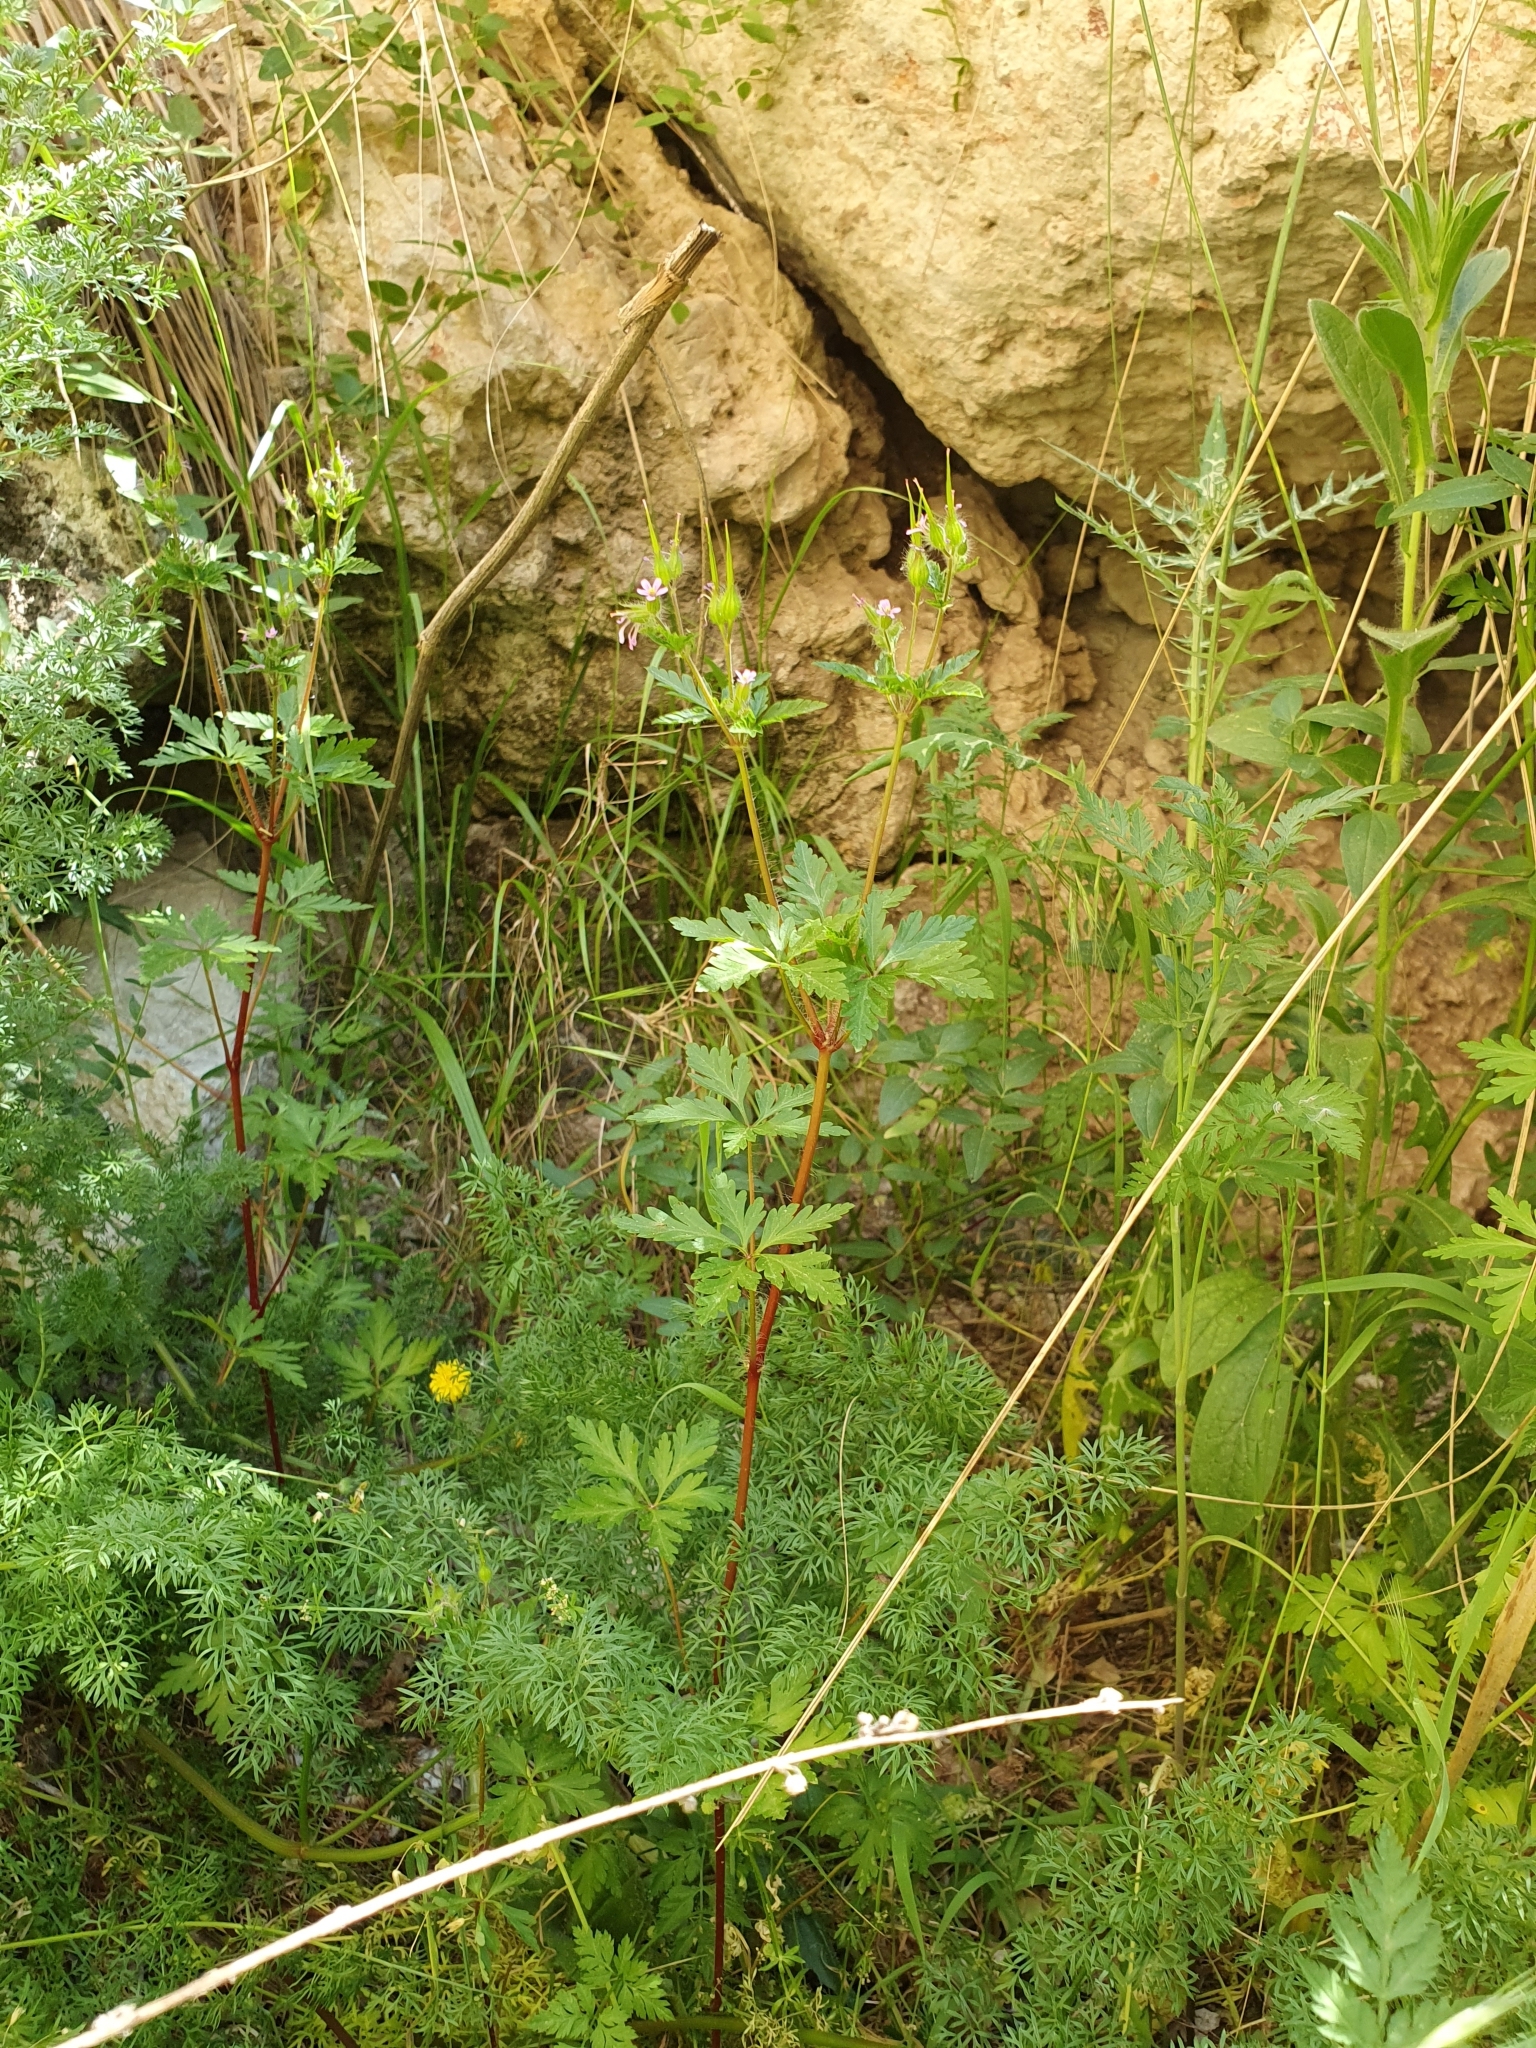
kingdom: Plantae
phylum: Tracheophyta
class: Magnoliopsida
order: Geraniales
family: Geraniaceae
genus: Geranium
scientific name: Geranium purpureum
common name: Little-robin
